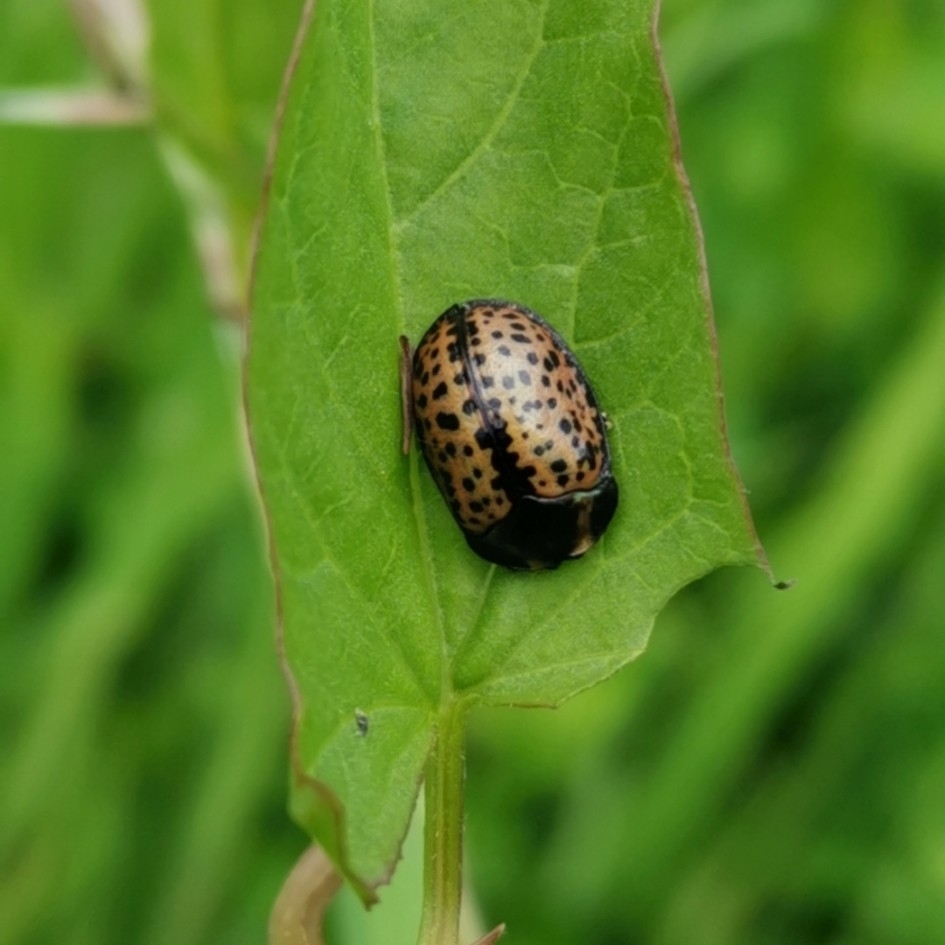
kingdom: Animalia
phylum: Arthropoda
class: Insecta
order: Coleoptera
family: Chrysomelidae
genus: Chelymorpha
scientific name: Chelymorpha varians
